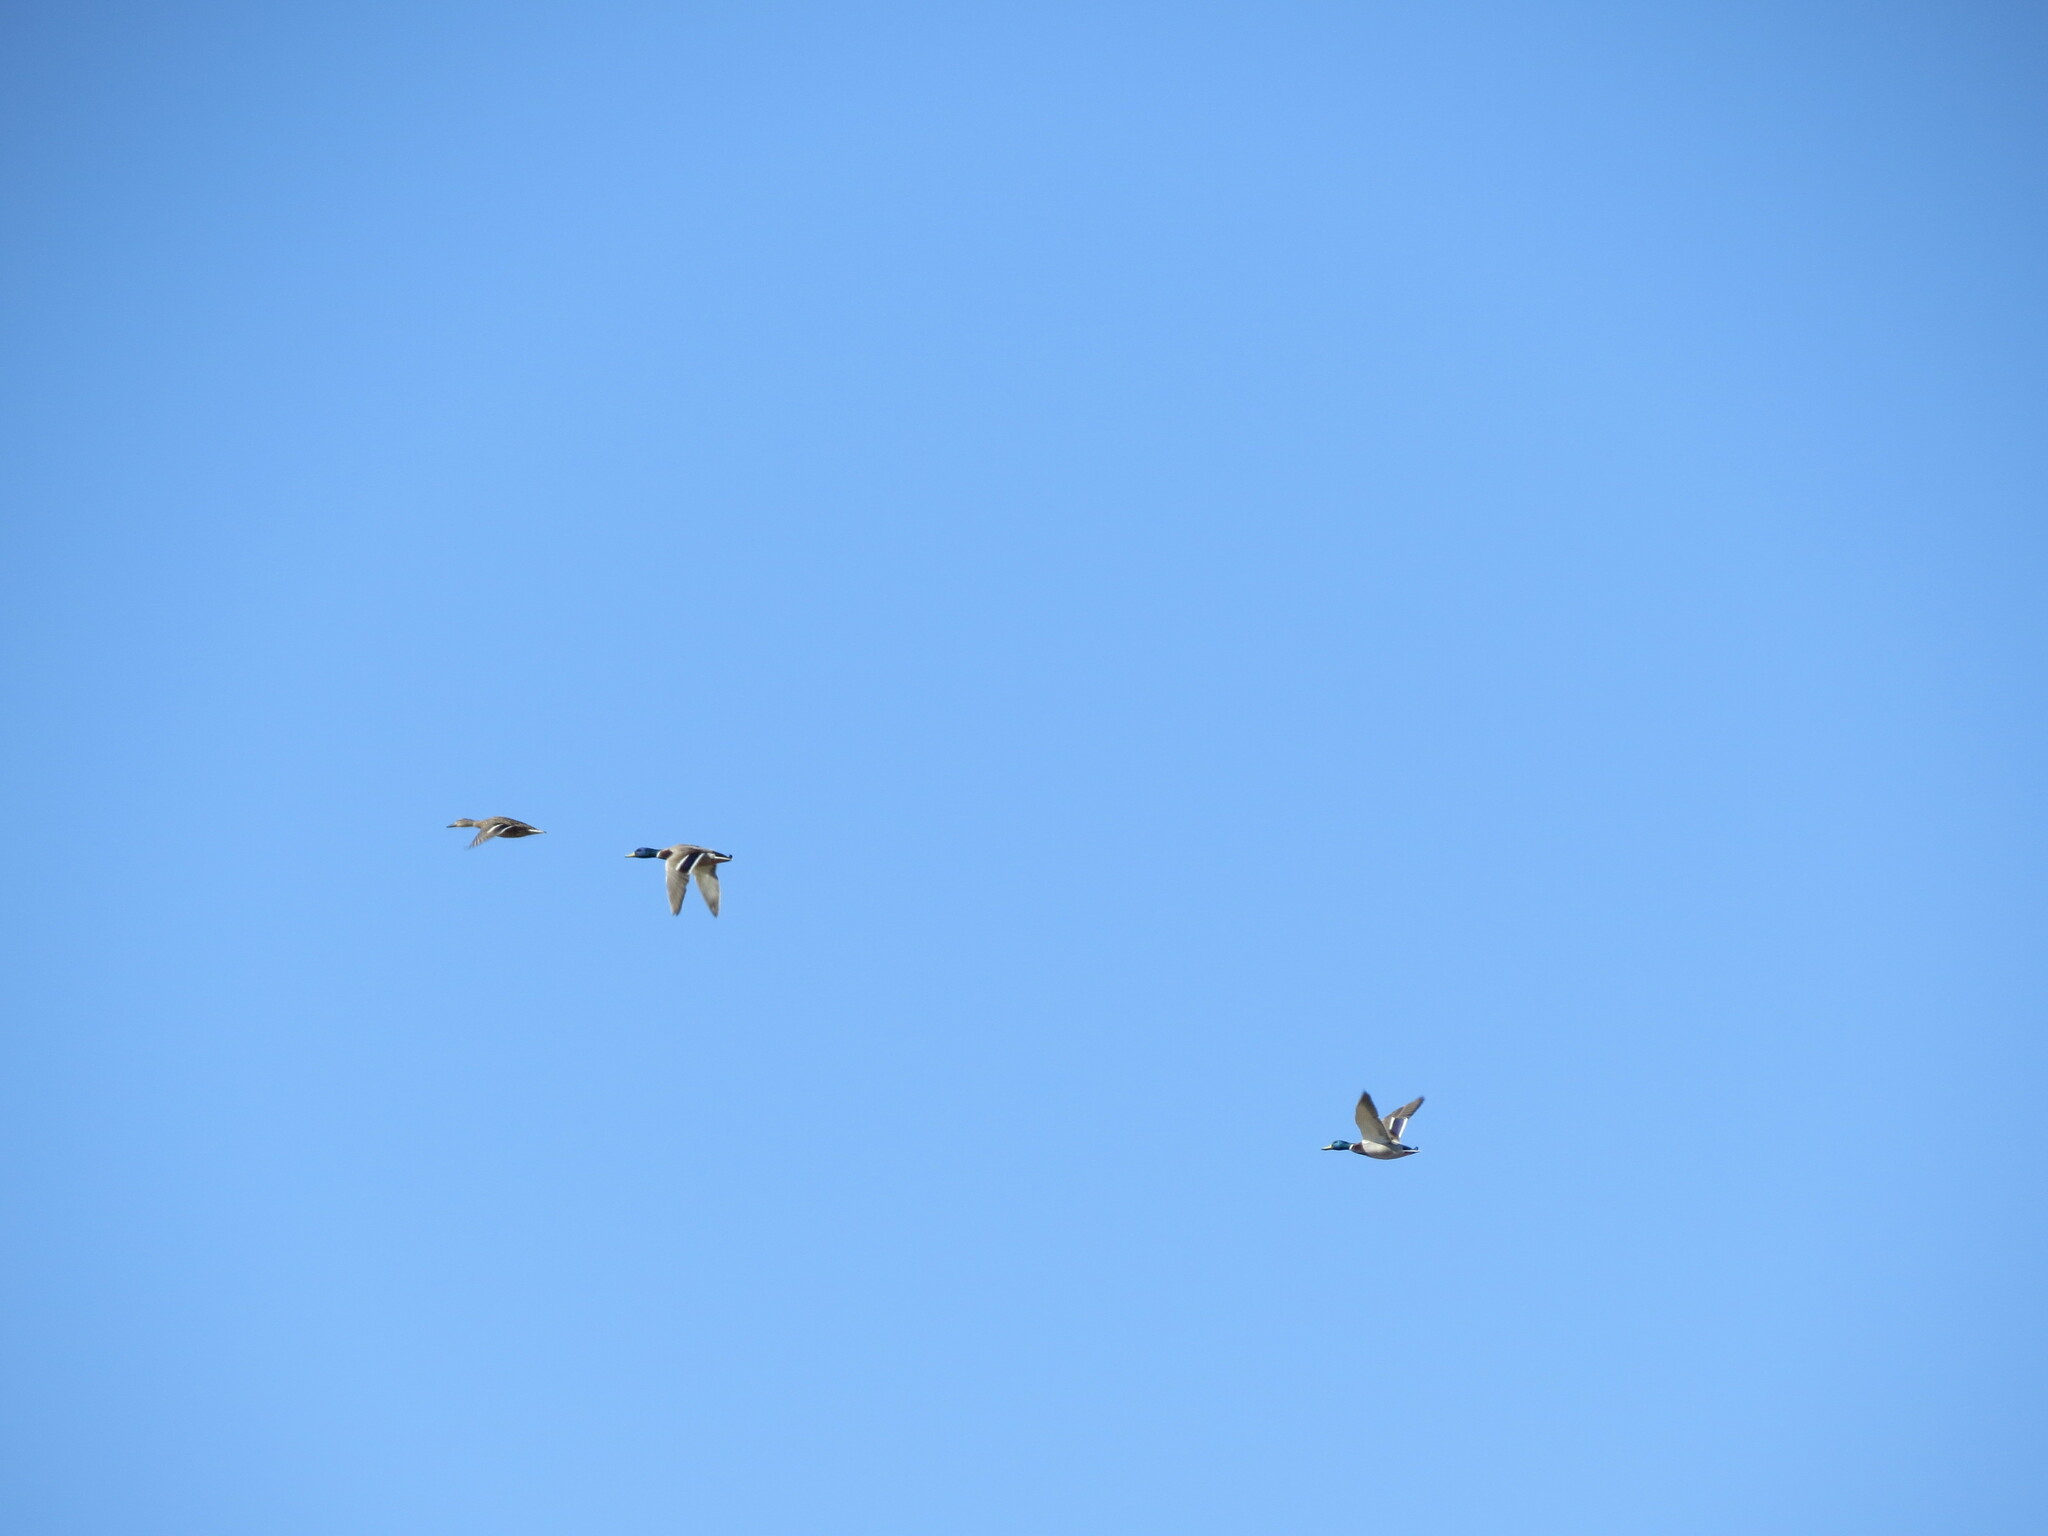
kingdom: Animalia
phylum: Chordata
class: Aves
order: Anseriformes
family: Anatidae
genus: Anas
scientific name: Anas platyrhynchos
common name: Mallard
